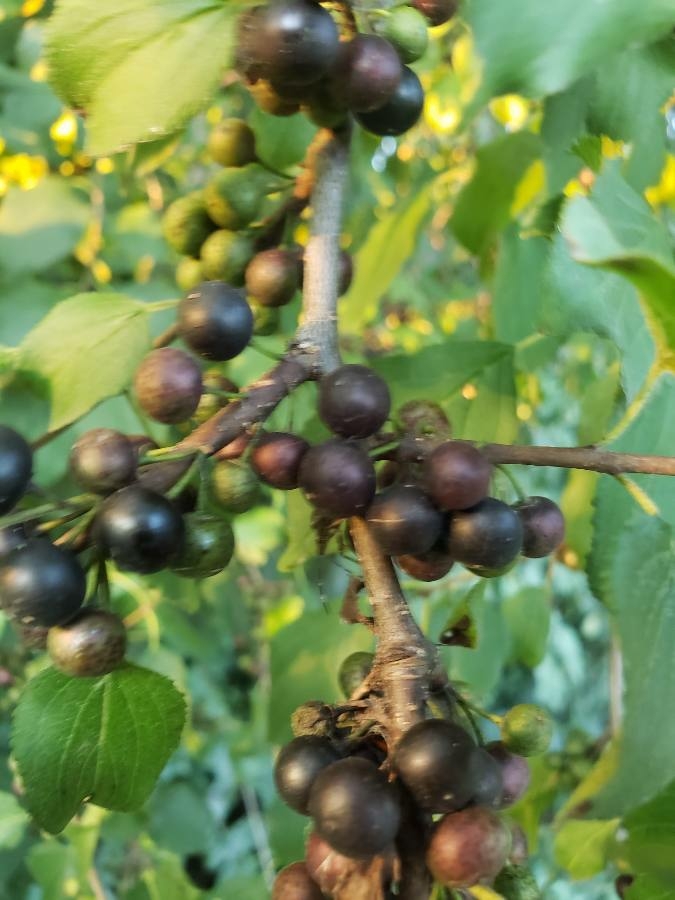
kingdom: Plantae
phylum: Tracheophyta
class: Magnoliopsida
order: Rosales
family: Rhamnaceae
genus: Rhamnus
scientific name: Rhamnus cathartica
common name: Common buckthorn
